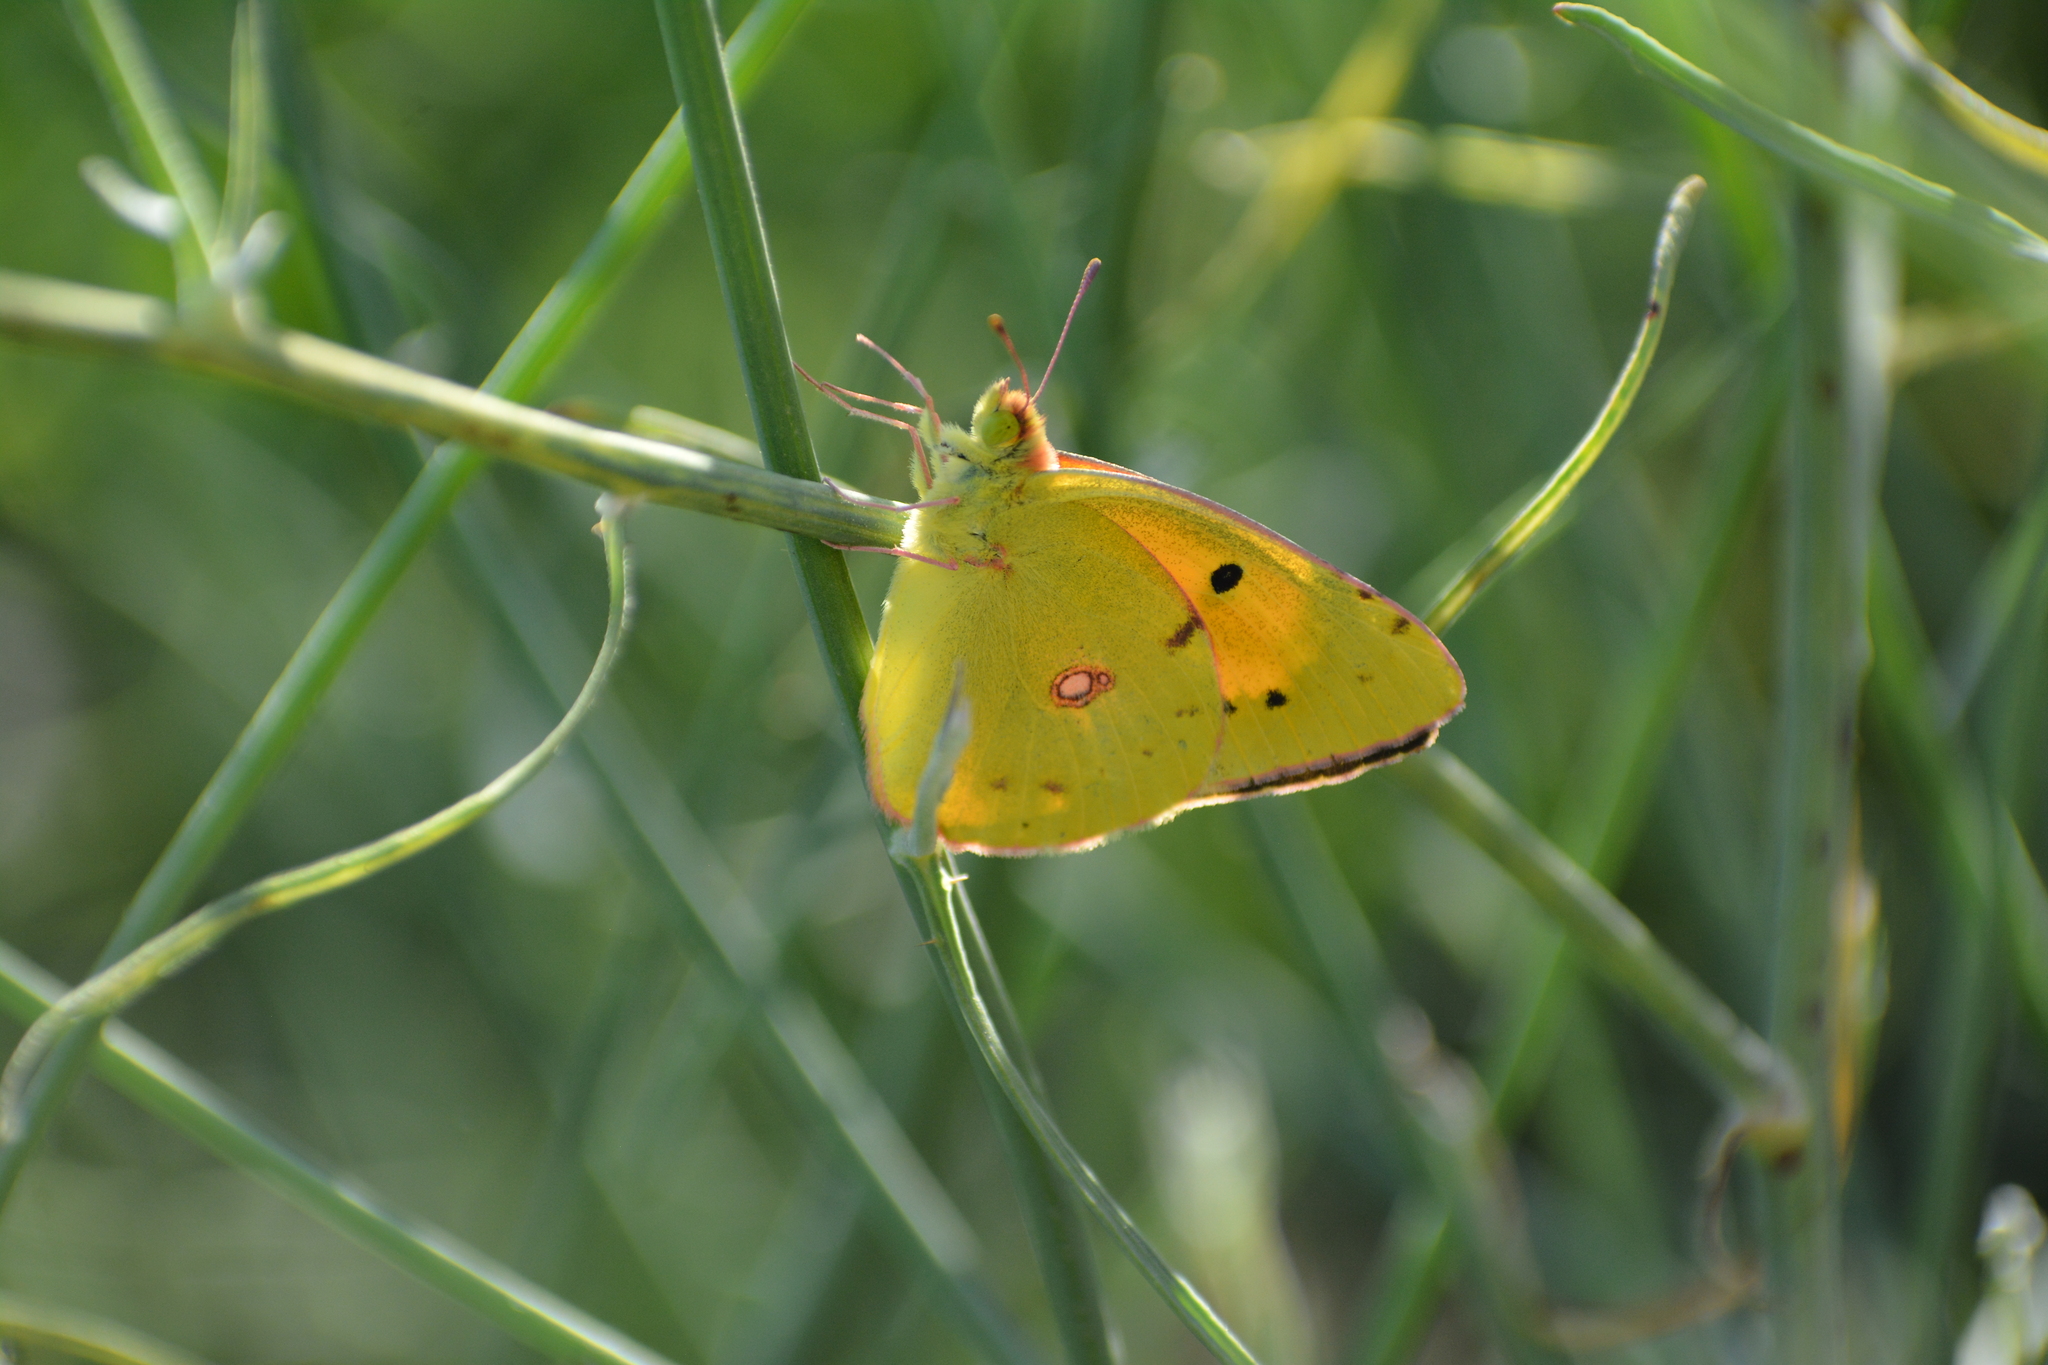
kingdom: Animalia
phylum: Arthropoda
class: Insecta
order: Lepidoptera
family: Pieridae
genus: Colias
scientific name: Colias croceus
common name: Clouded yellow
